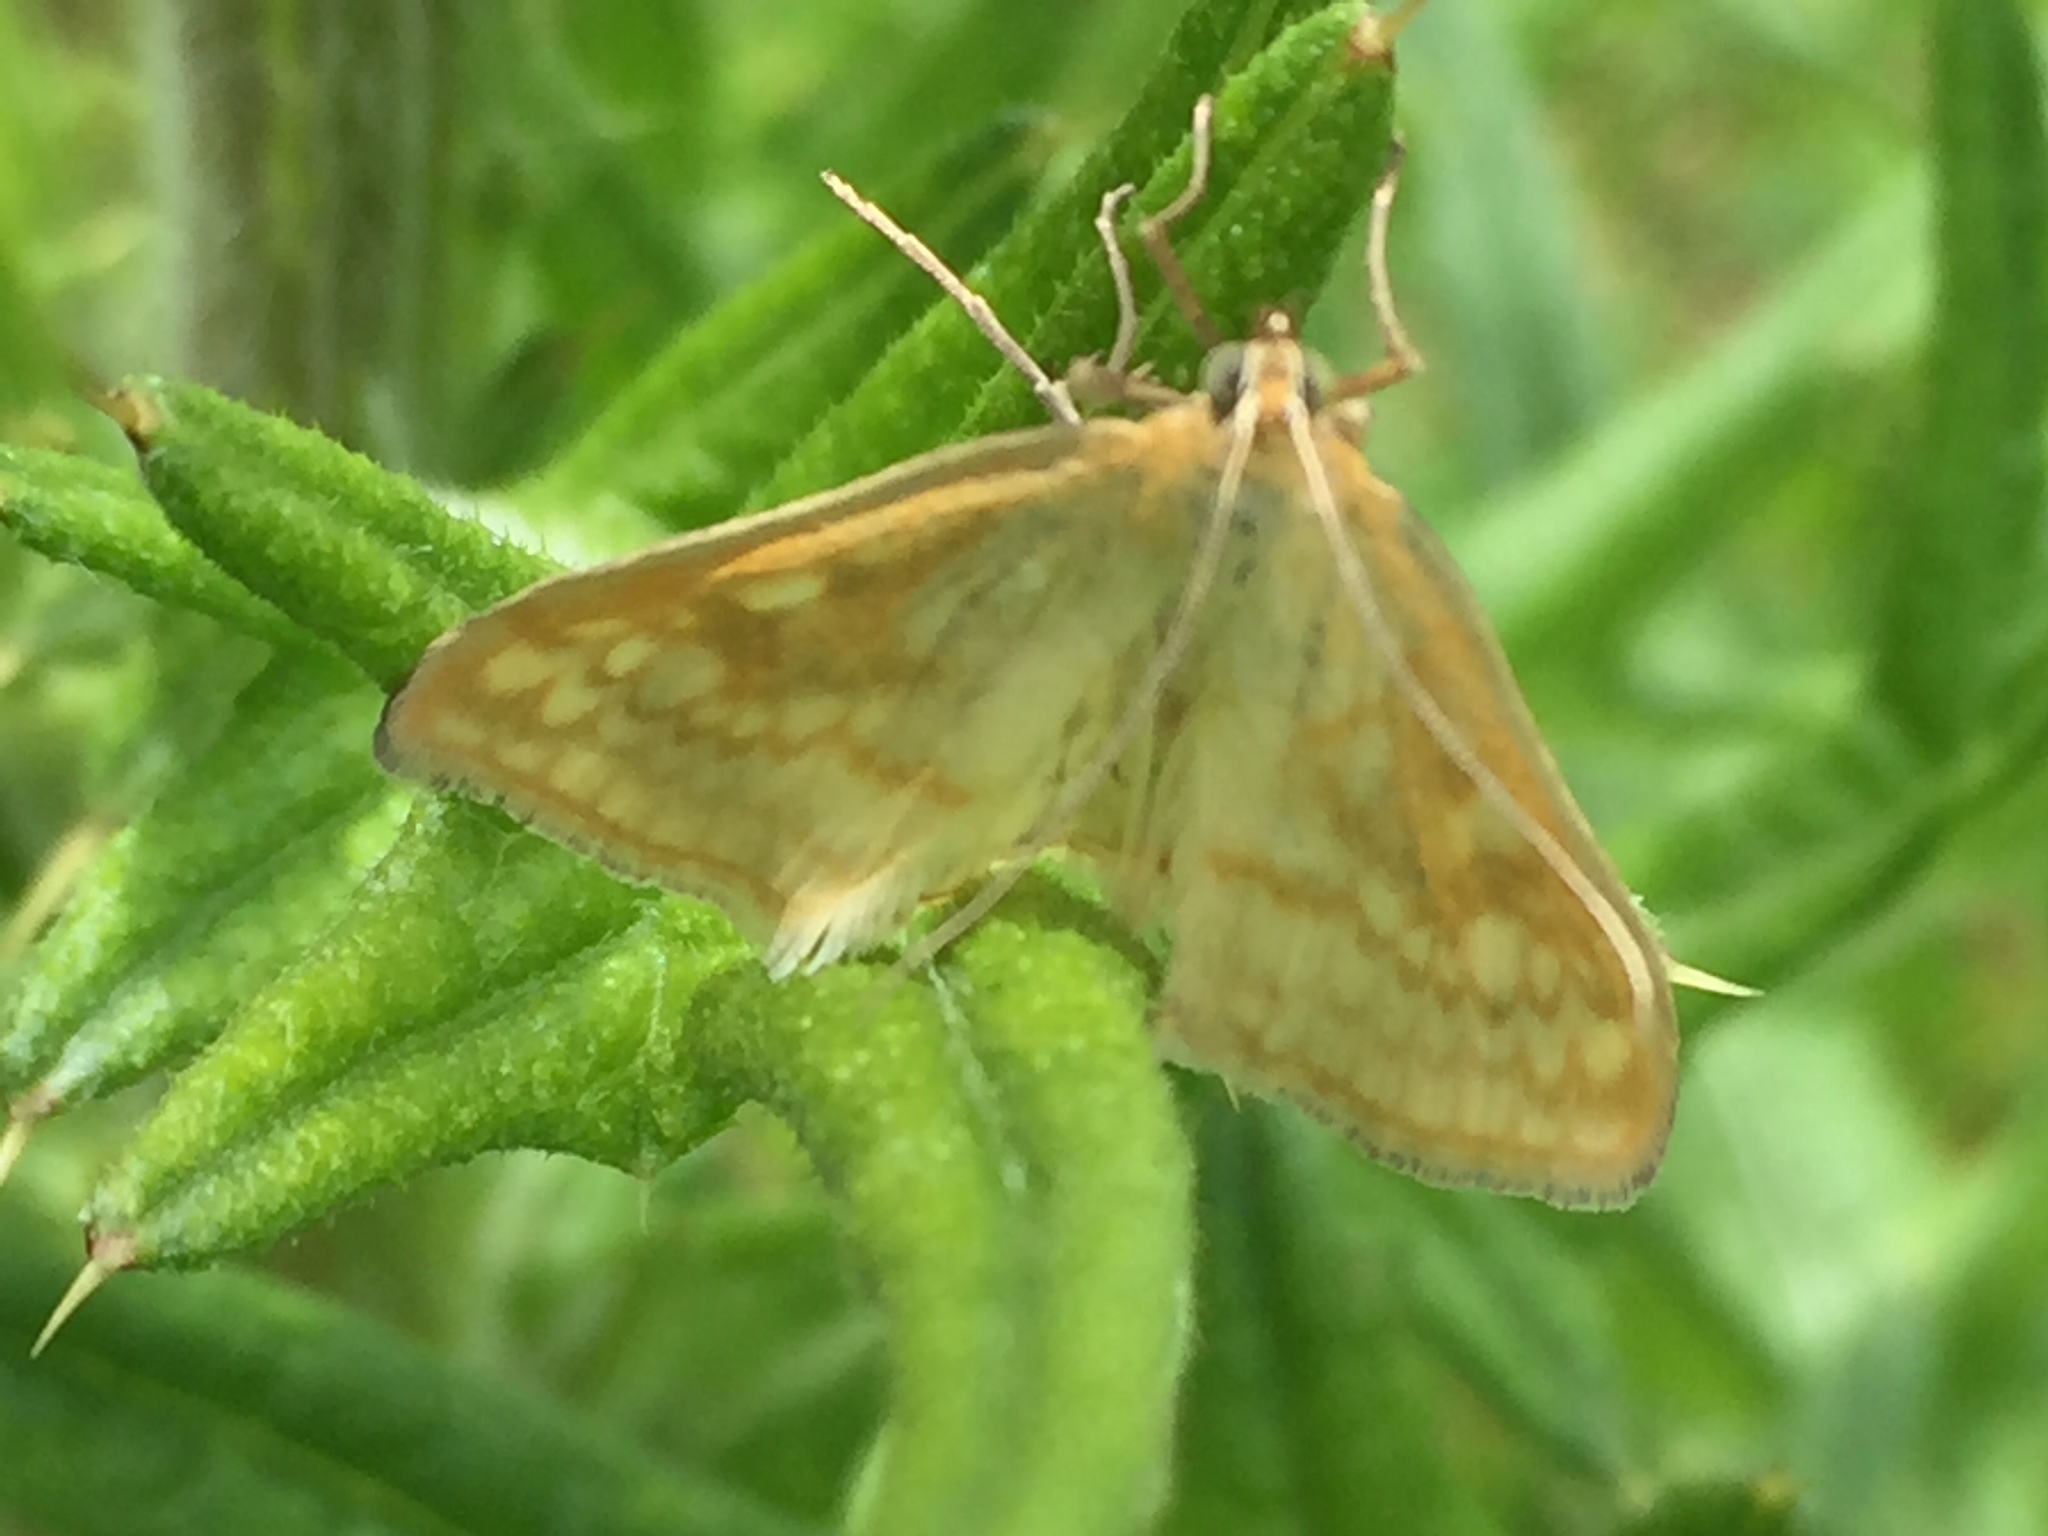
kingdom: Animalia
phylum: Arthropoda
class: Insecta
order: Lepidoptera
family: Crambidae
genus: Sitochroa
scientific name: Sitochroa verticalis
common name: Lesser pearl
